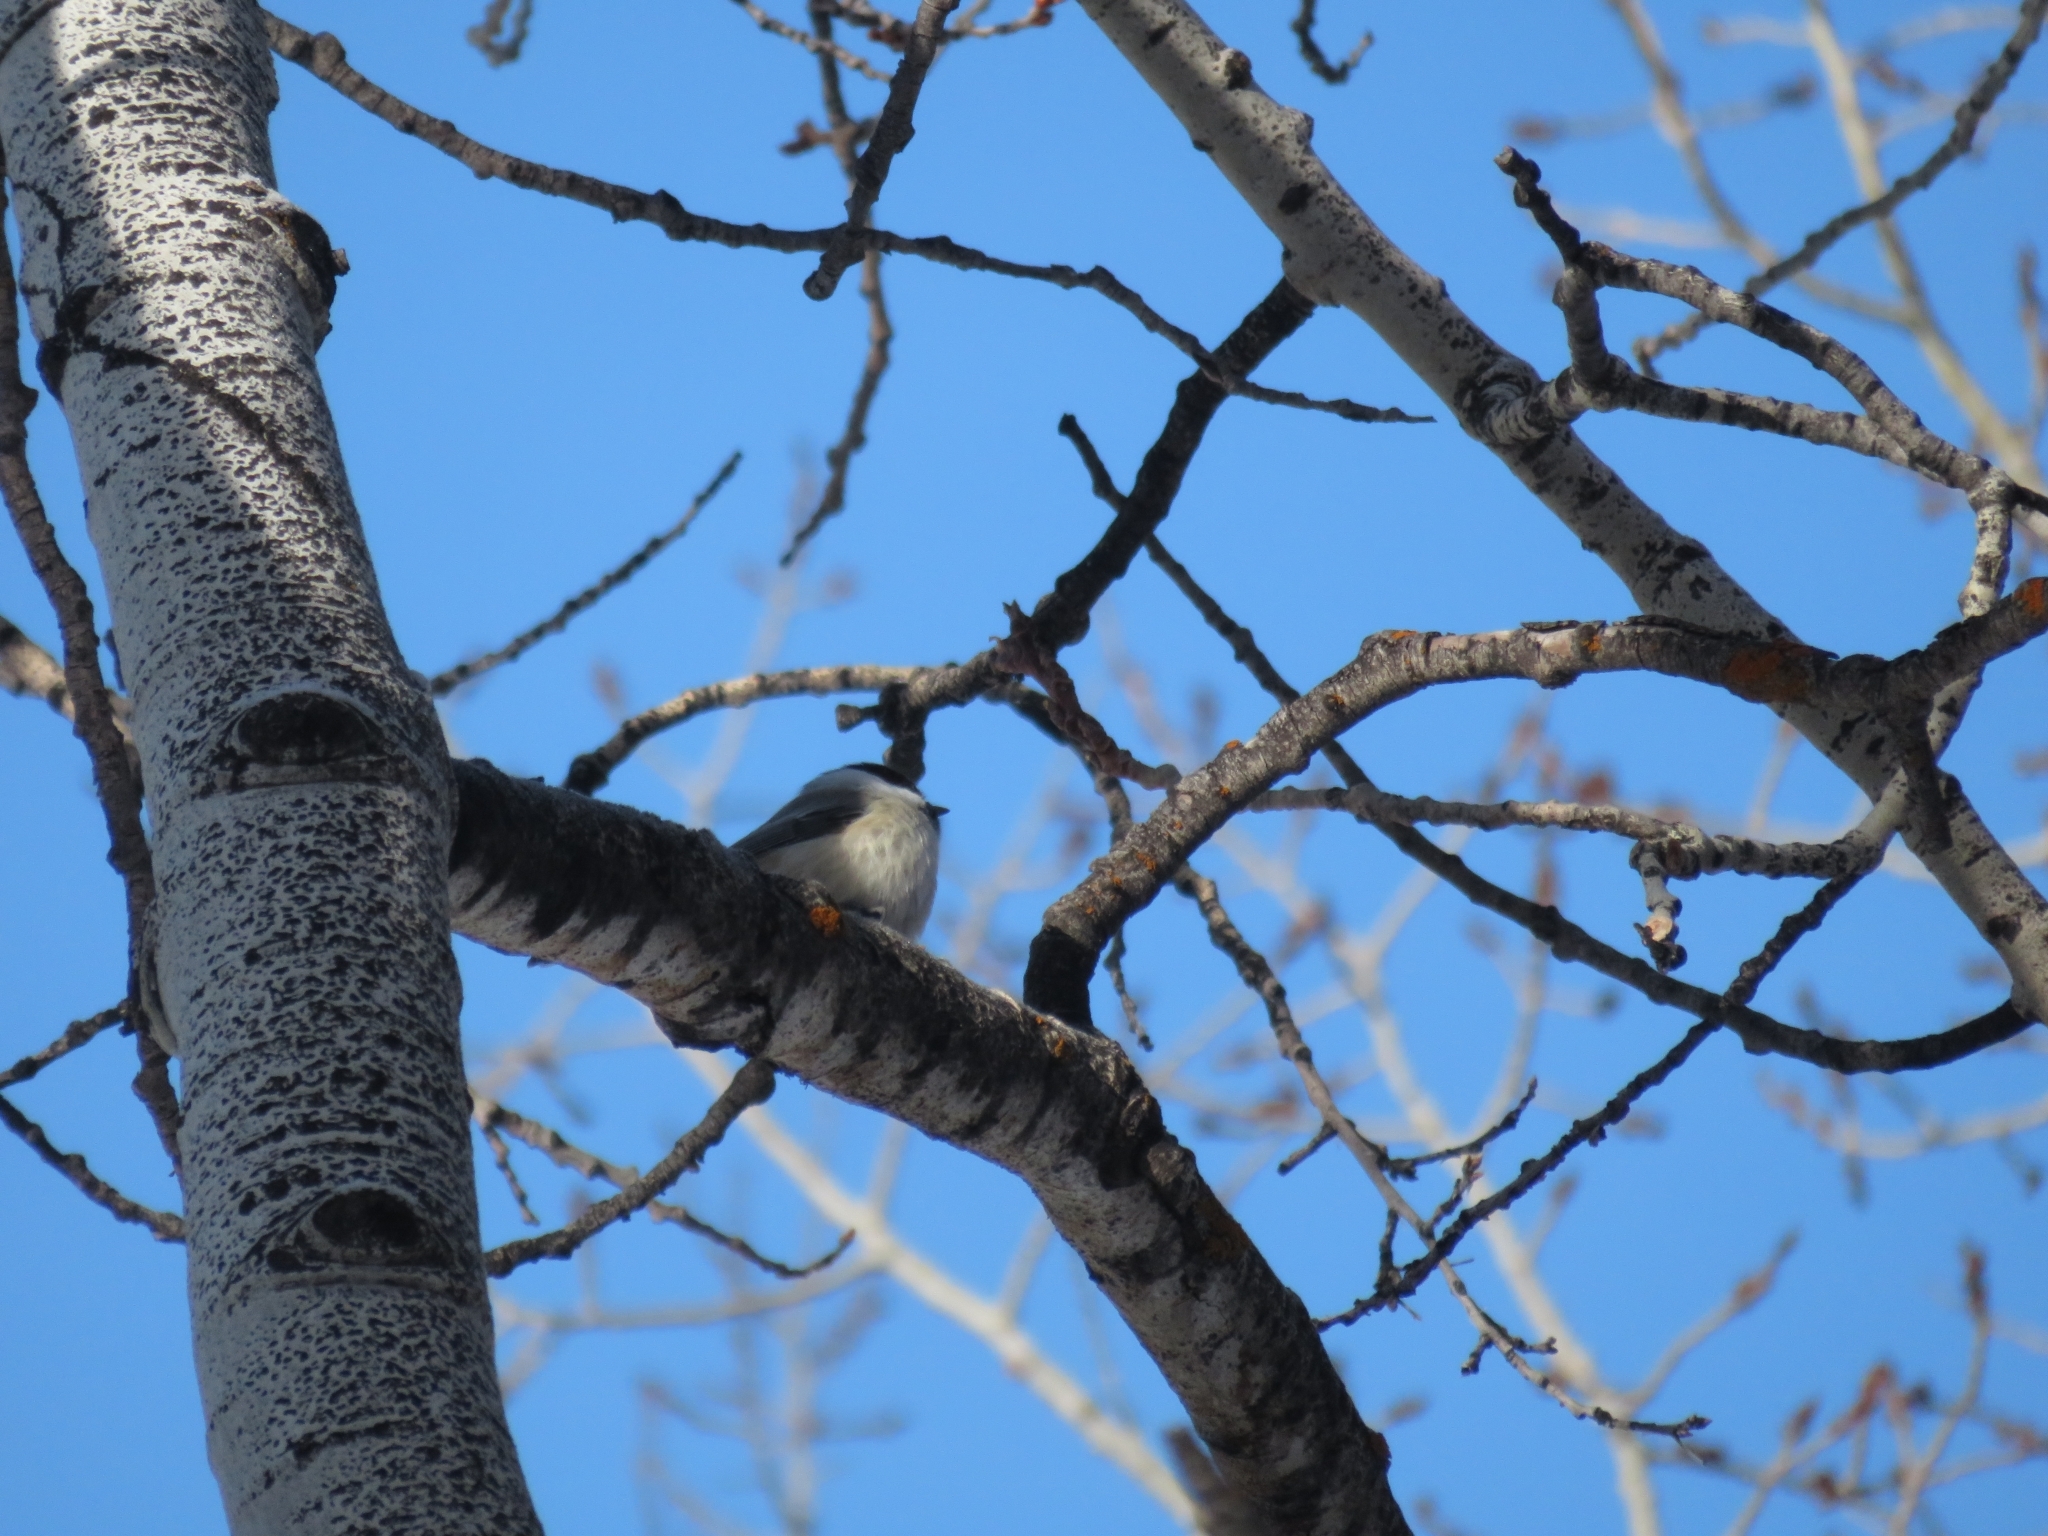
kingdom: Animalia
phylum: Chordata
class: Aves
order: Passeriformes
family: Paridae
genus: Poecile
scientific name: Poecile atricapillus
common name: Black-capped chickadee
